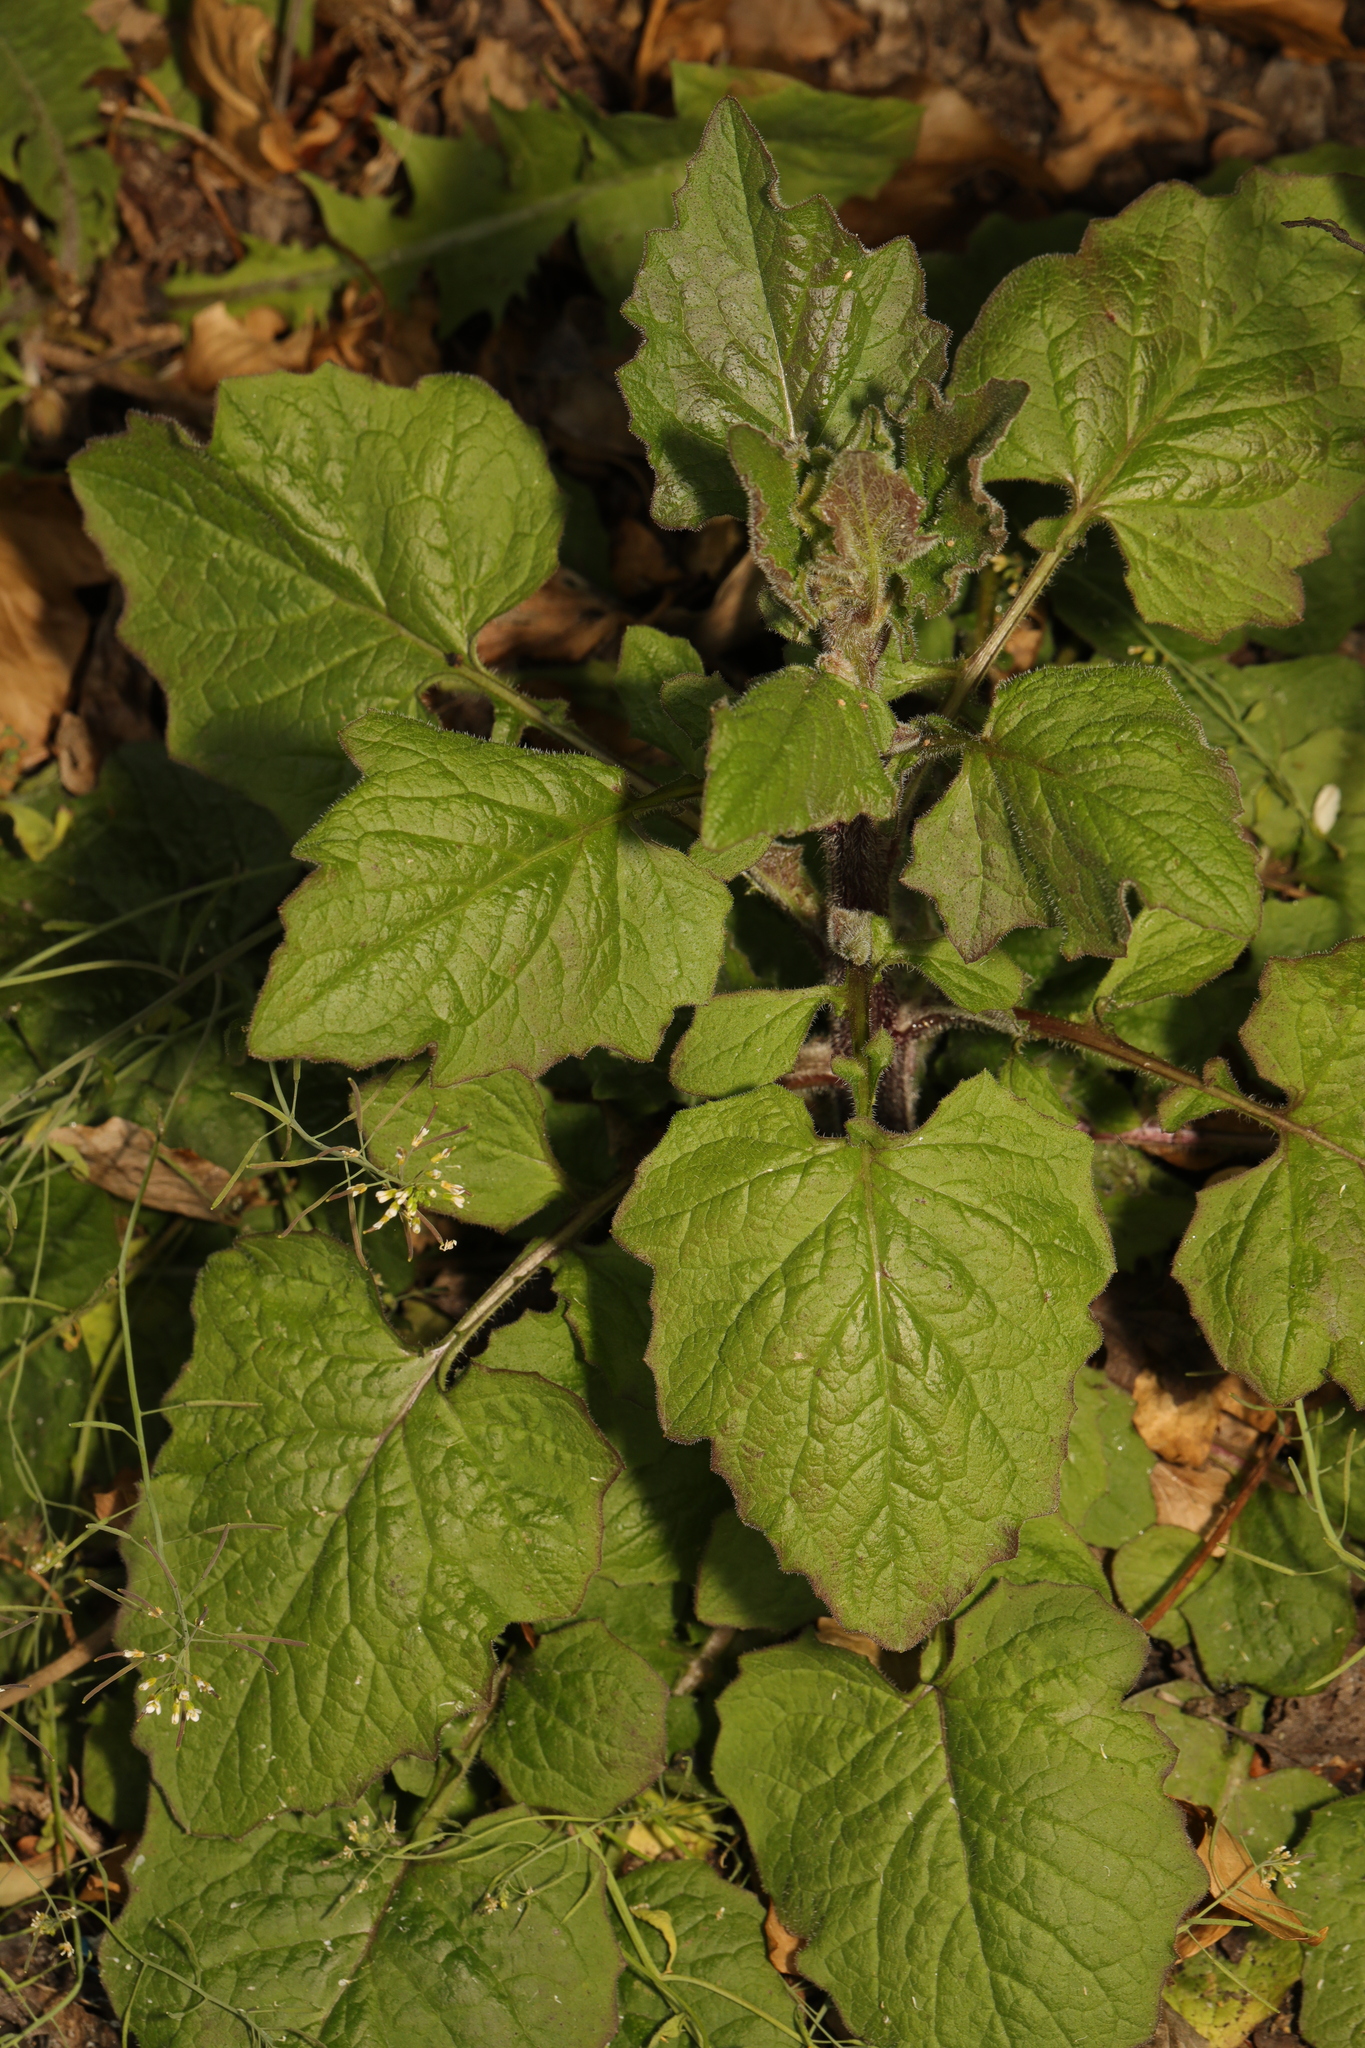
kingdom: Plantae
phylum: Tracheophyta
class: Magnoliopsida
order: Asterales
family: Asteraceae
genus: Lapsana
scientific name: Lapsana communis
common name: Nipplewort
